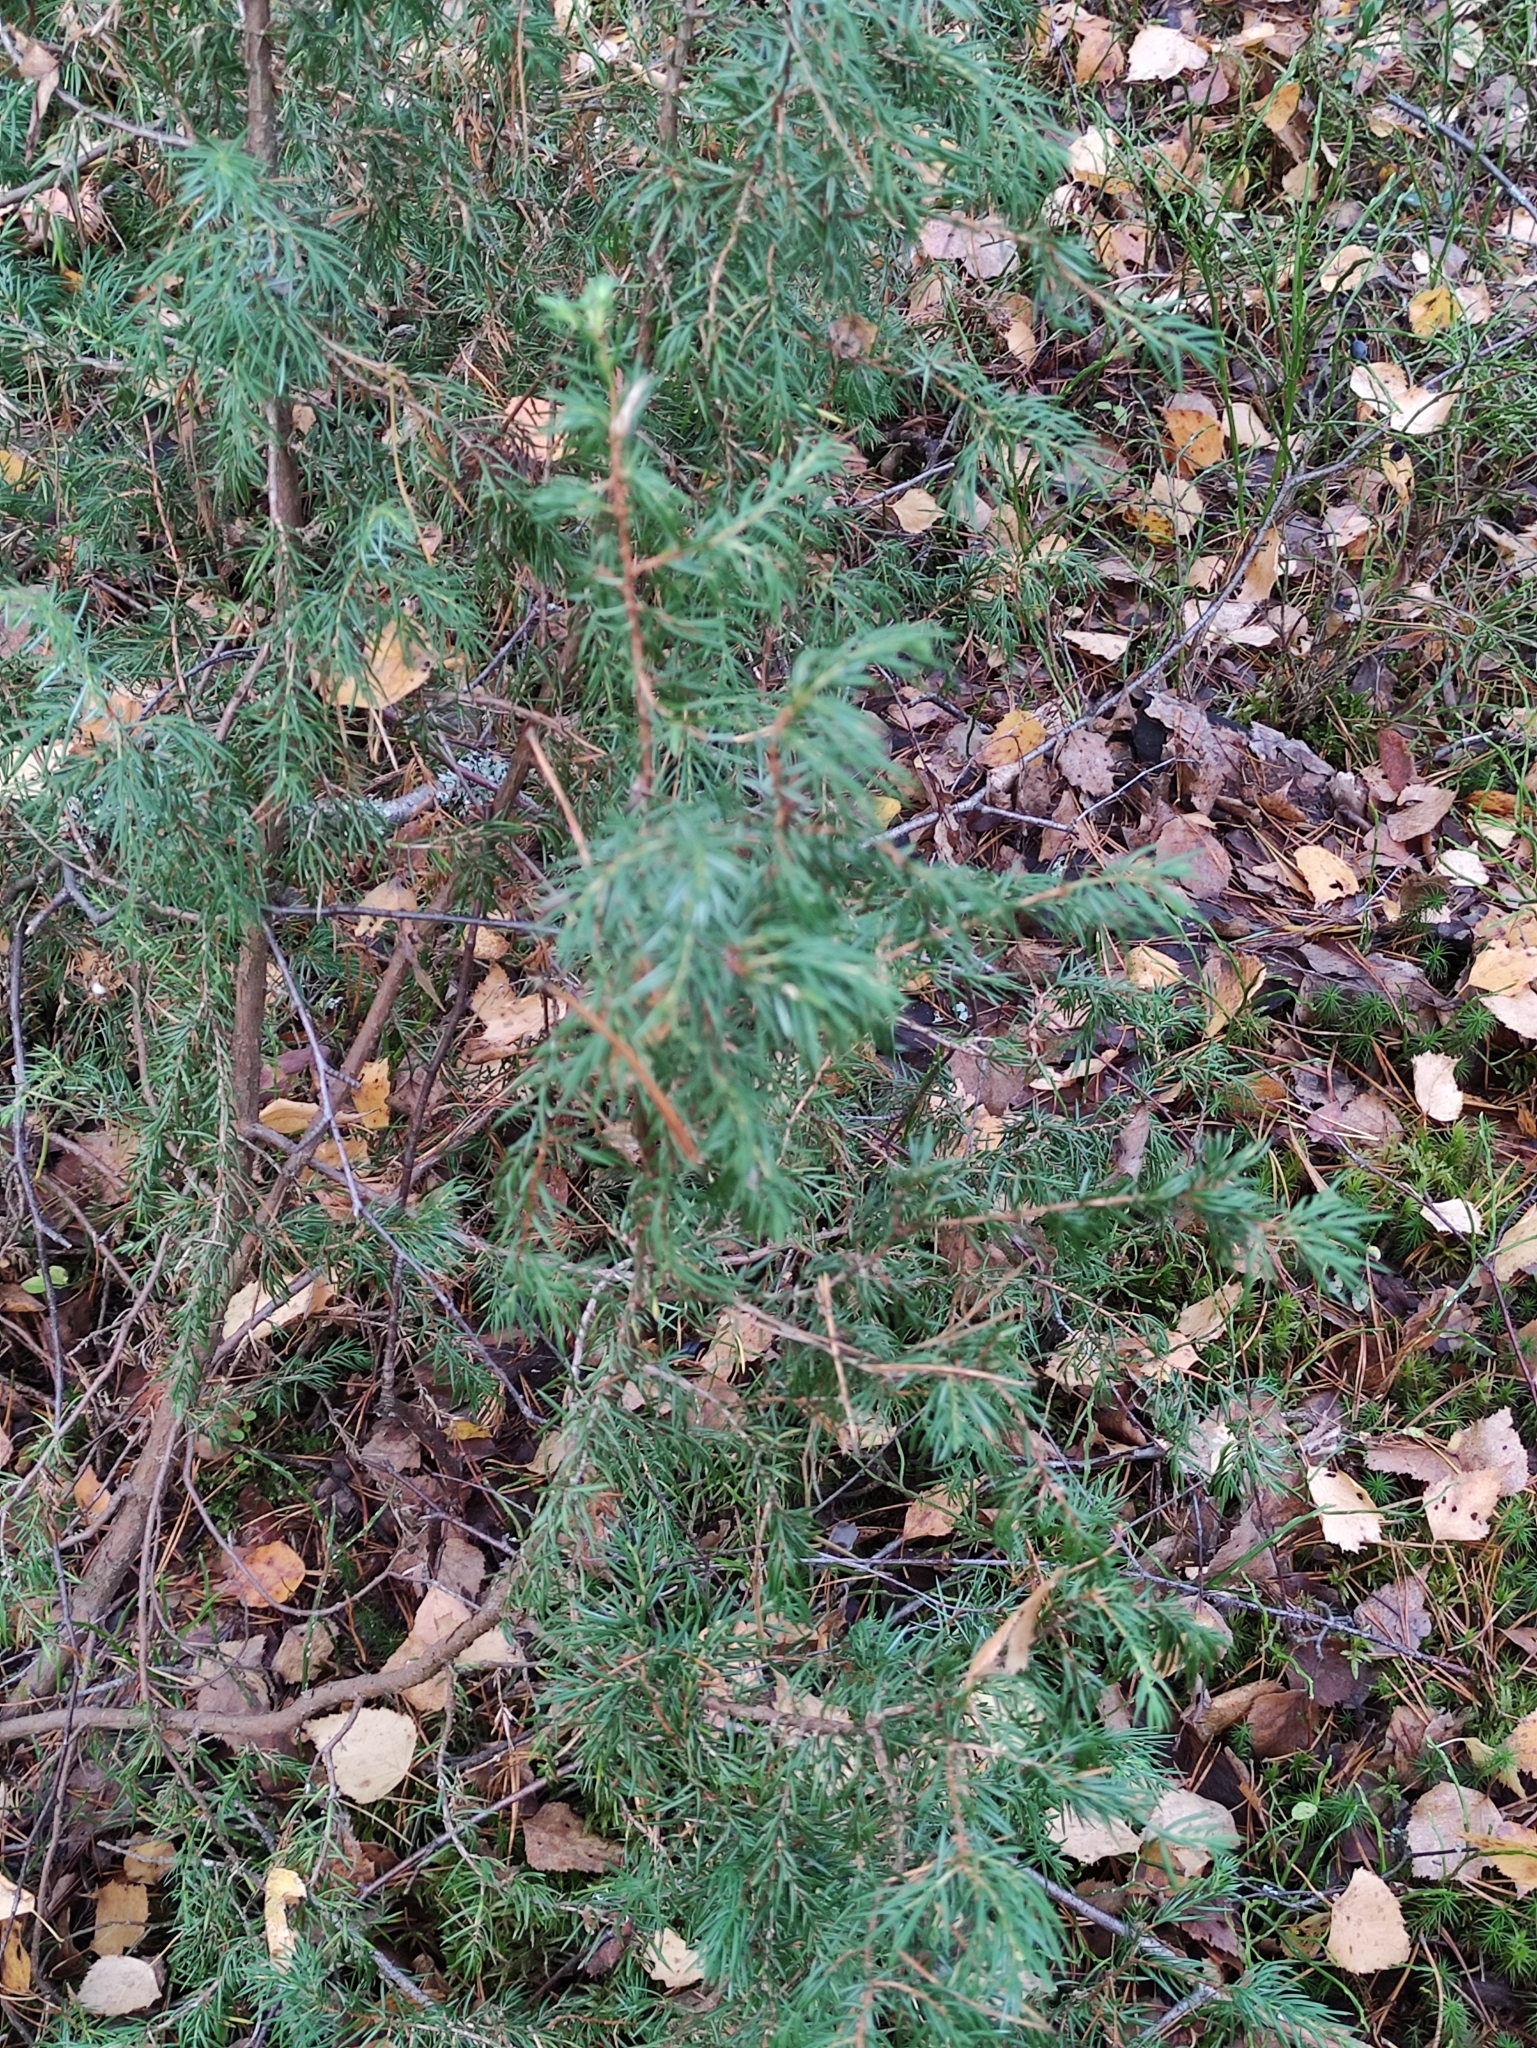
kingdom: Plantae
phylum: Tracheophyta
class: Pinopsida
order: Pinales
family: Cupressaceae
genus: Juniperus
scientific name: Juniperus communis
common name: Common juniper
